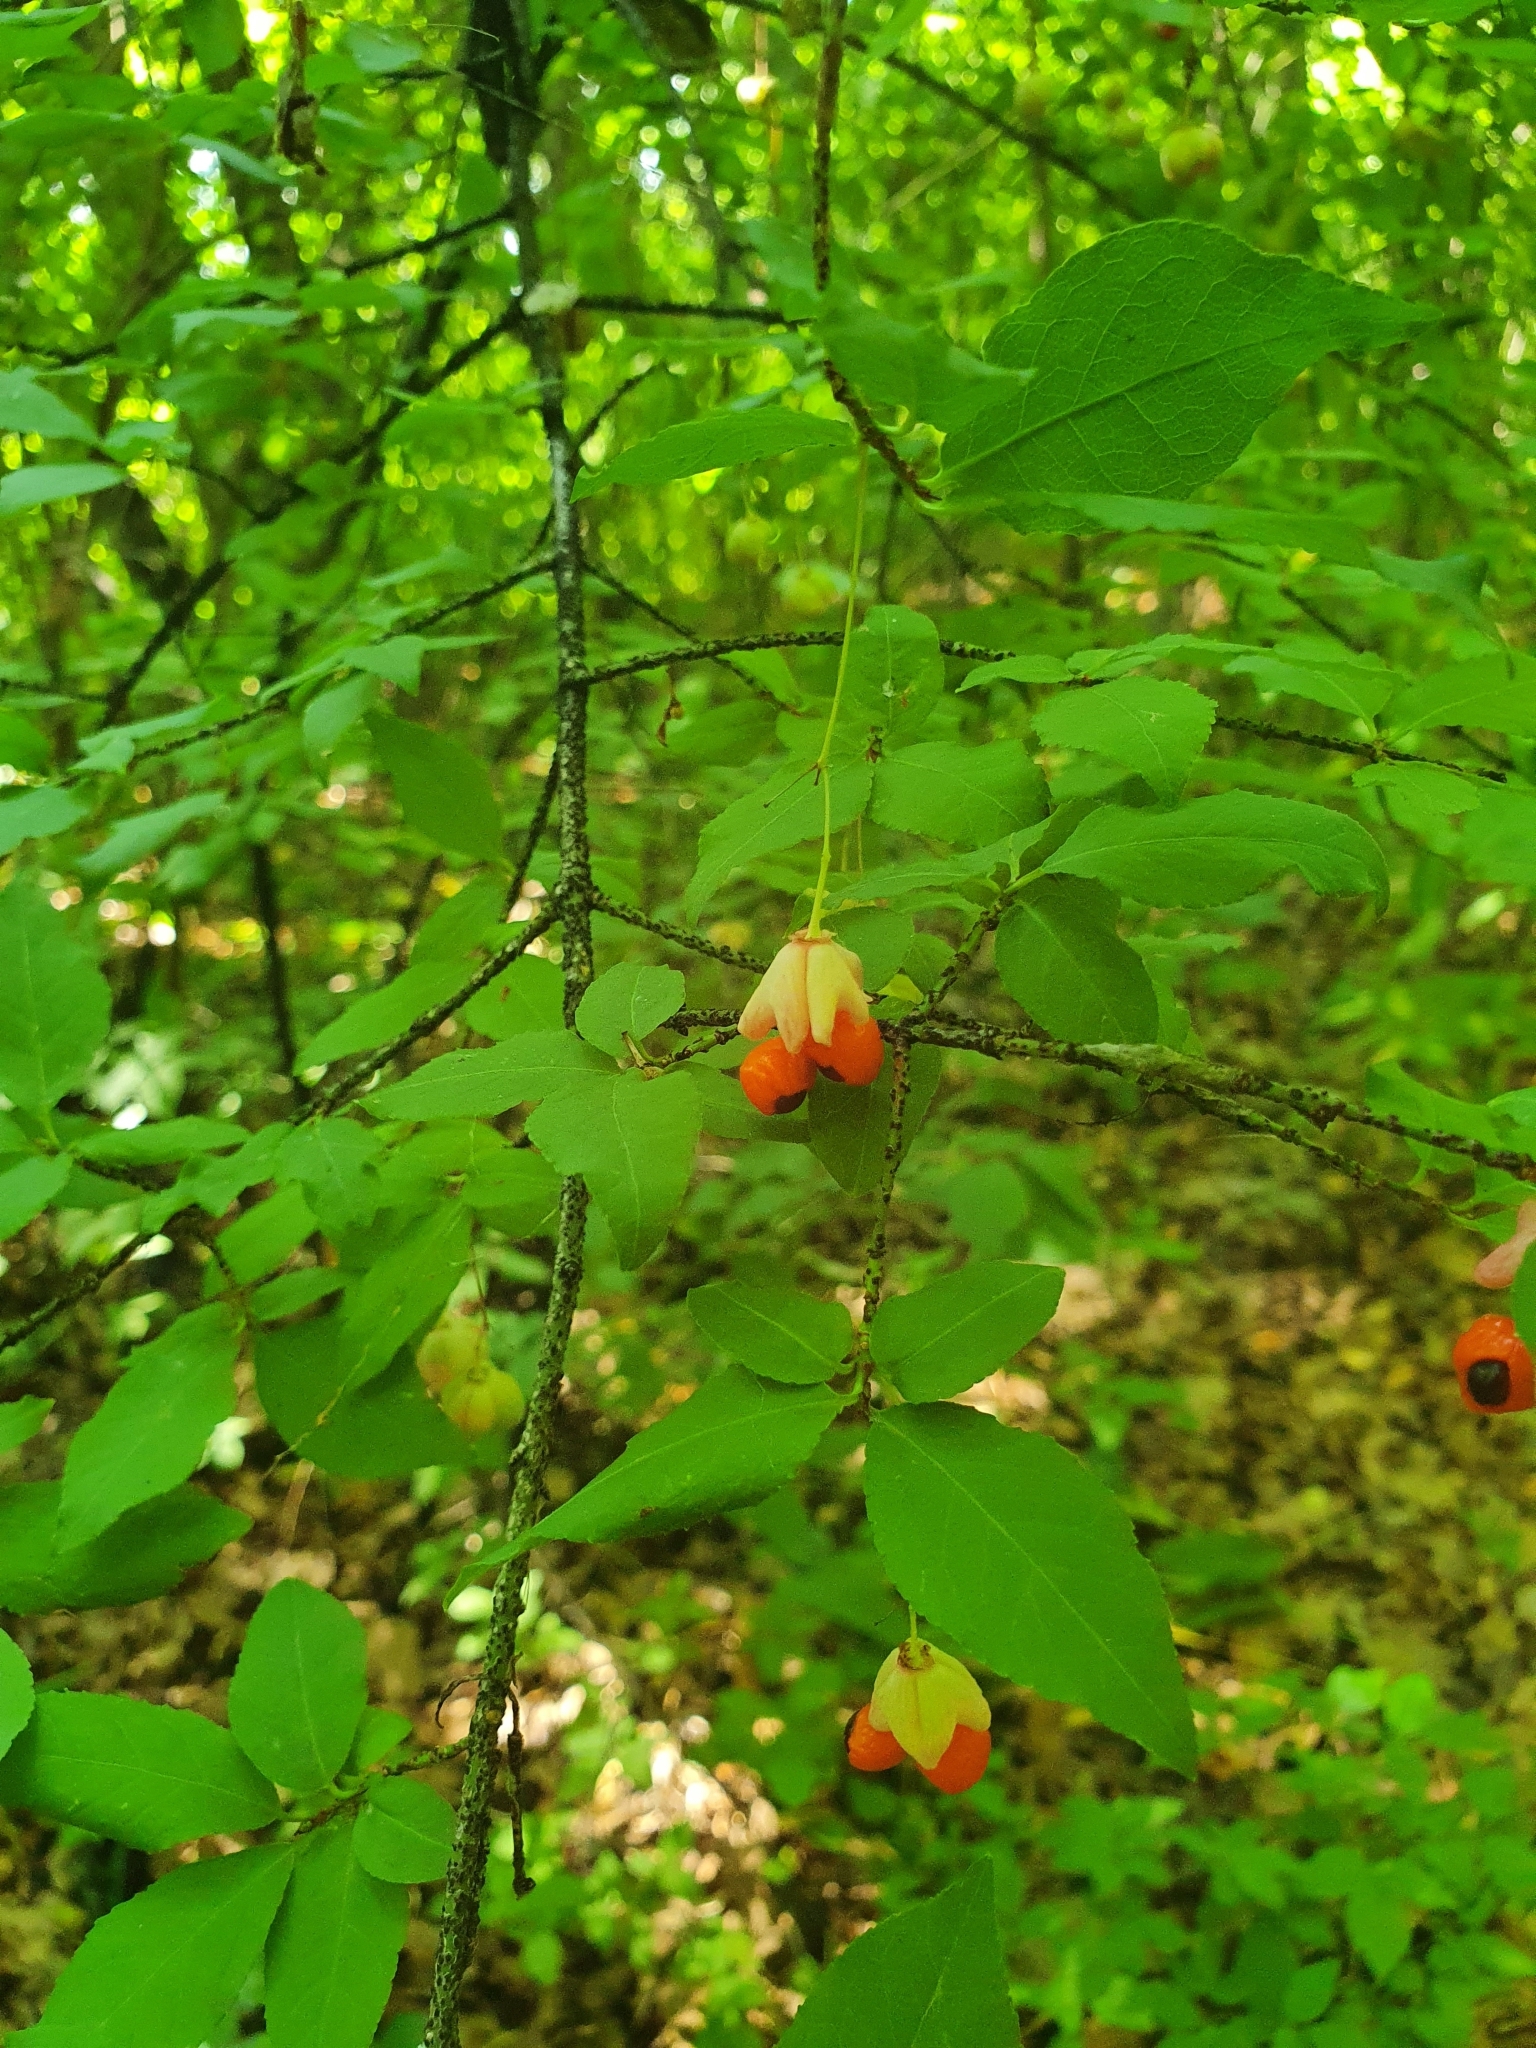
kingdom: Plantae
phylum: Tracheophyta
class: Magnoliopsida
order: Celastrales
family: Celastraceae
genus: Euonymus
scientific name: Euonymus verrucosus
